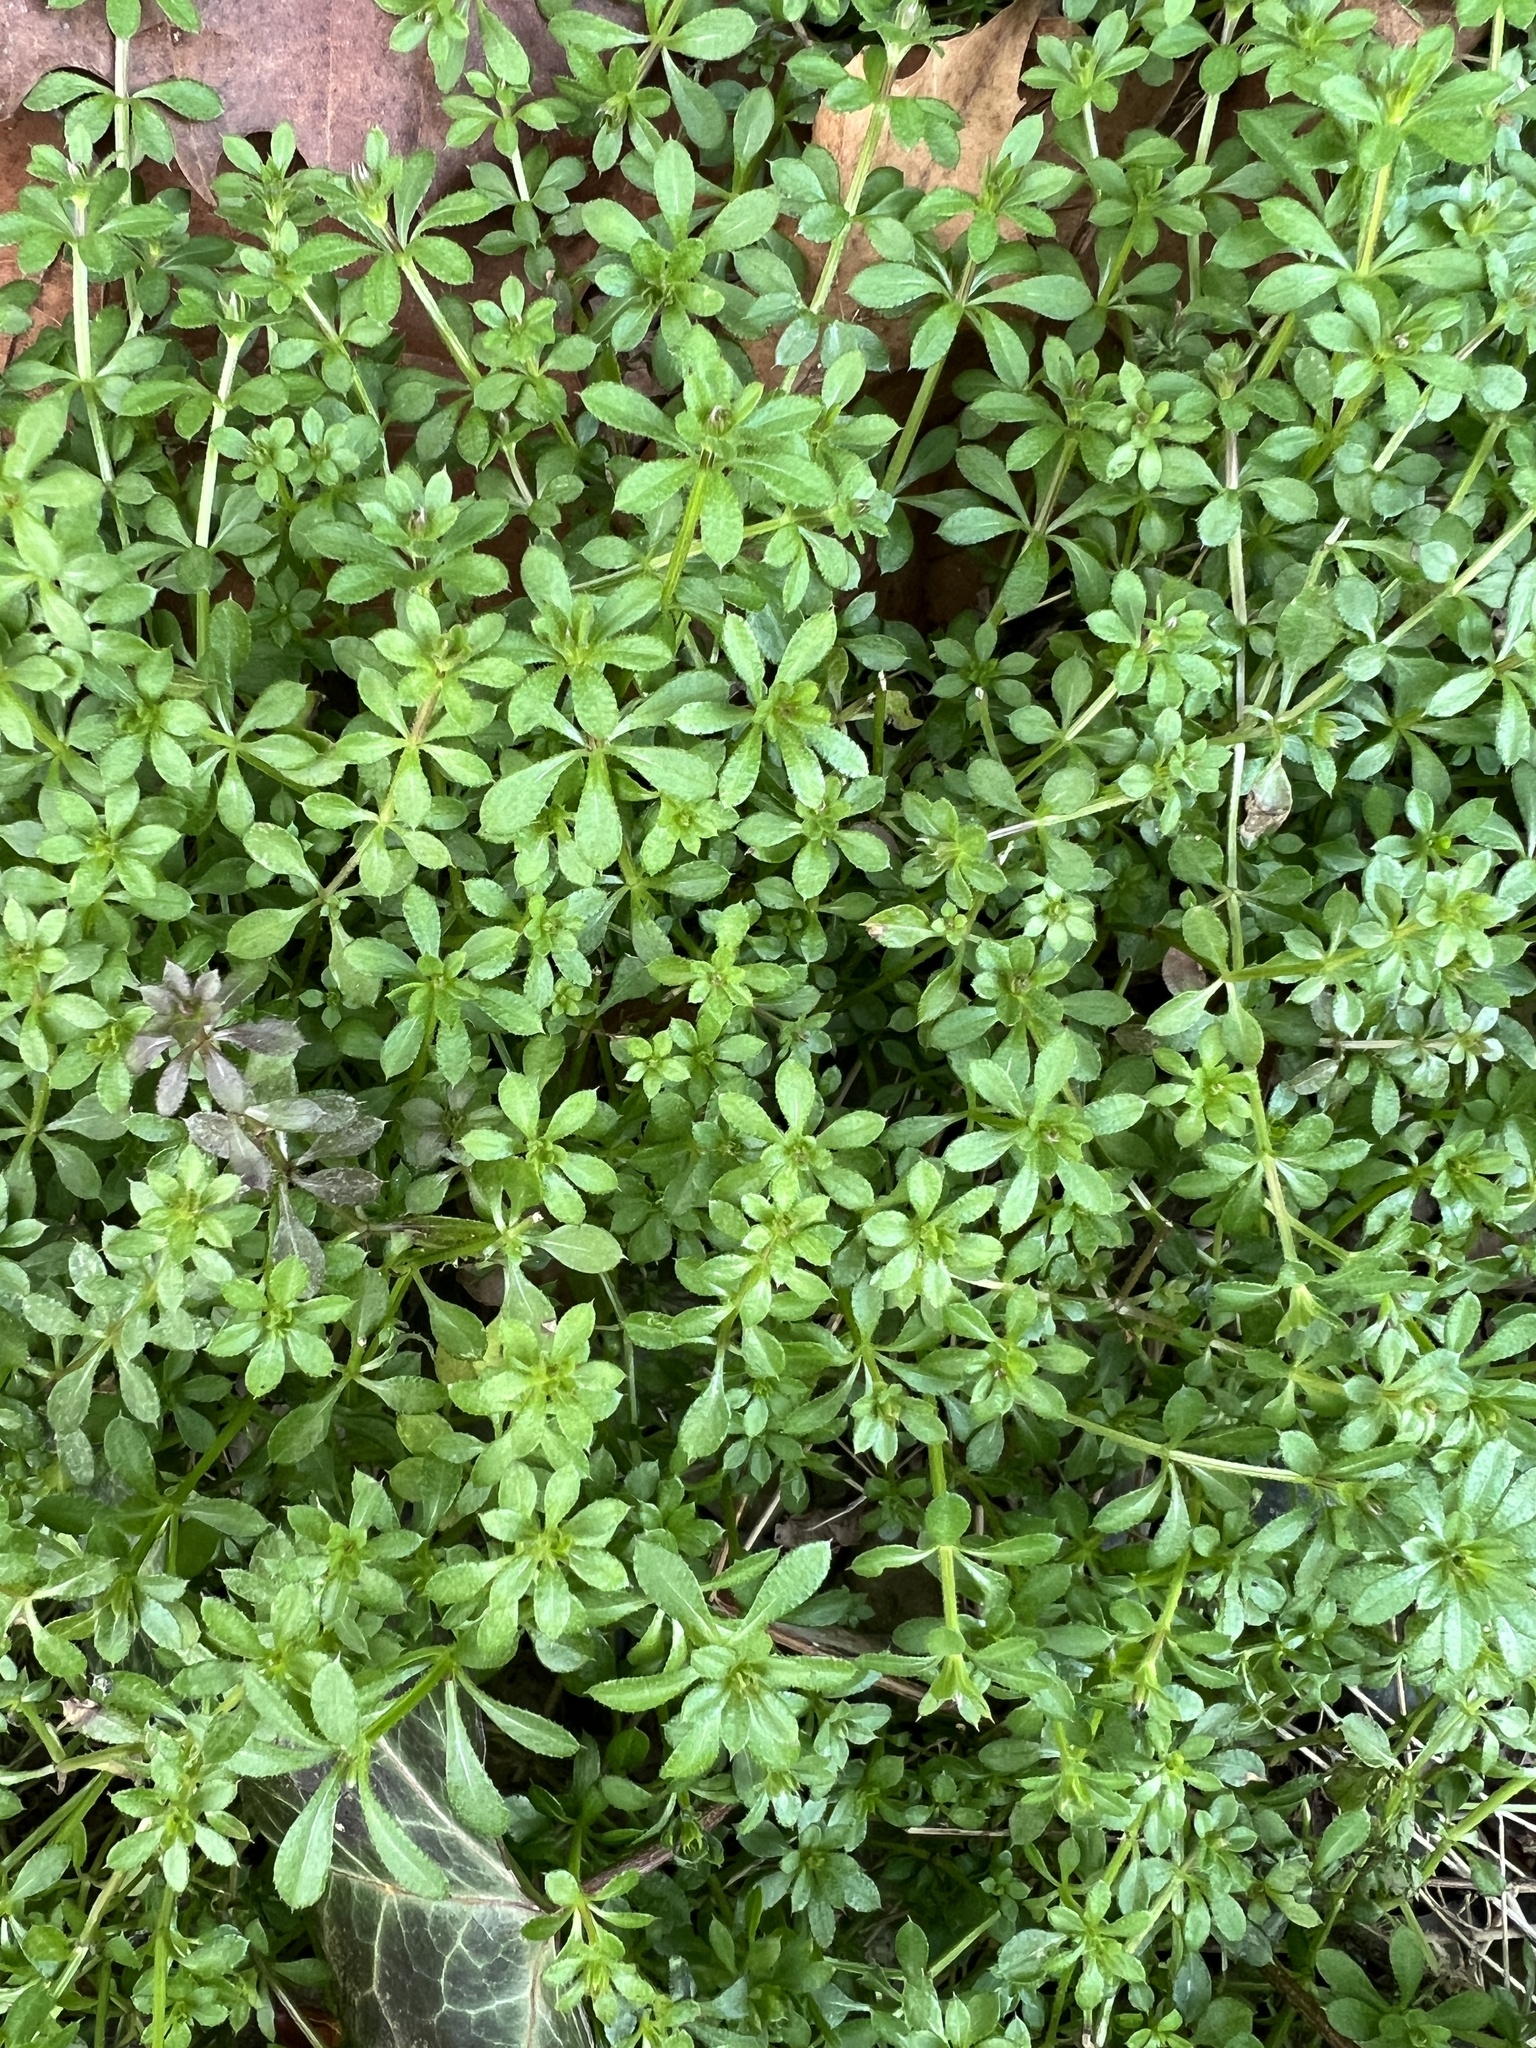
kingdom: Plantae
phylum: Tracheophyta
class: Magnoliopsida
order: Gentianales
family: Rubiaceae
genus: Galium
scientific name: Galium aparine
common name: Cleavers
